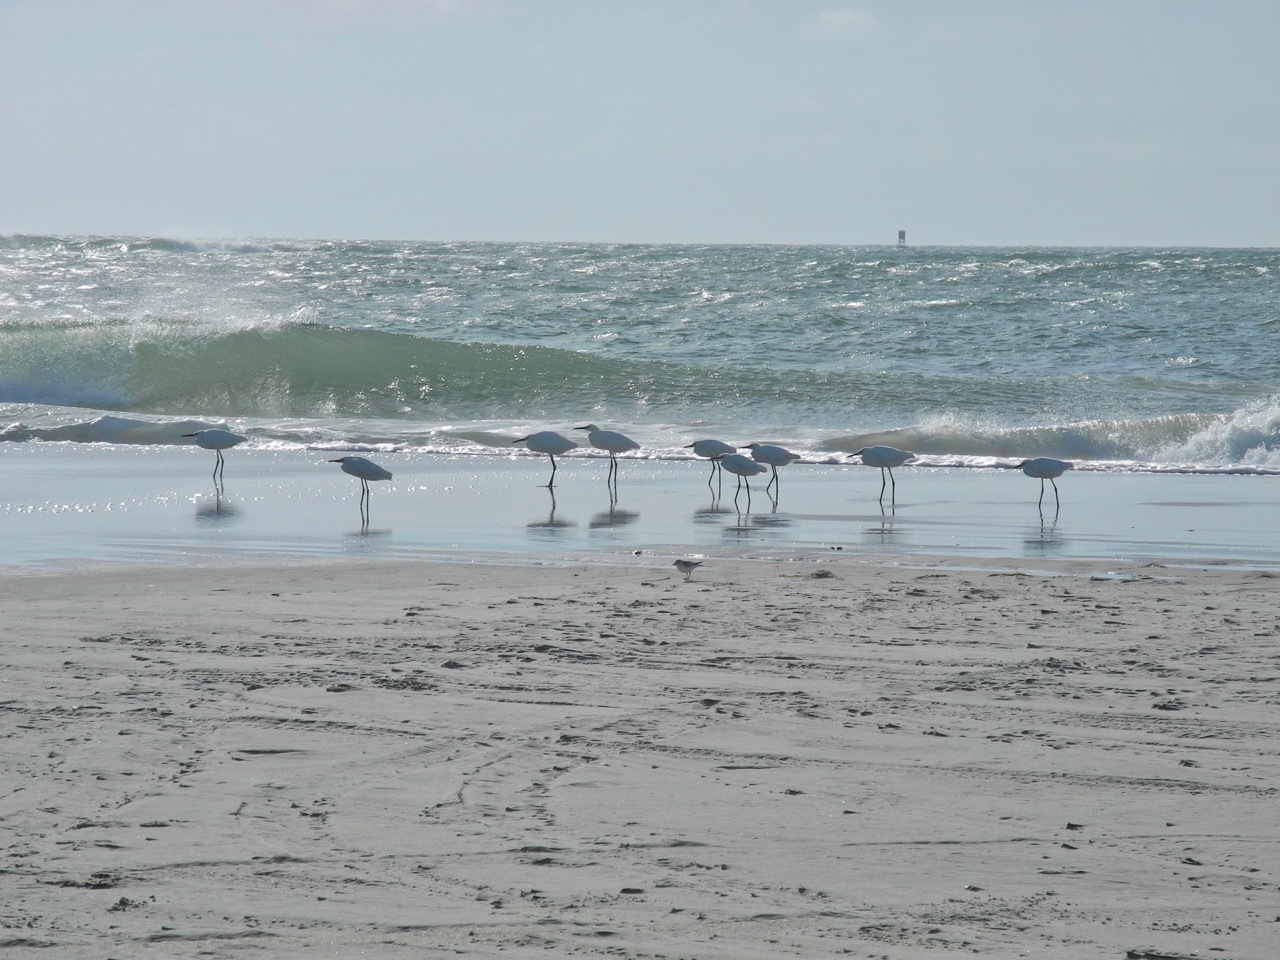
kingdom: Animalia
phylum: Chordata
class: Aves
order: Pelecaniformes
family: Ardeidae
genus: Egretta
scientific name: Egretta thula
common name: Snowy egret
